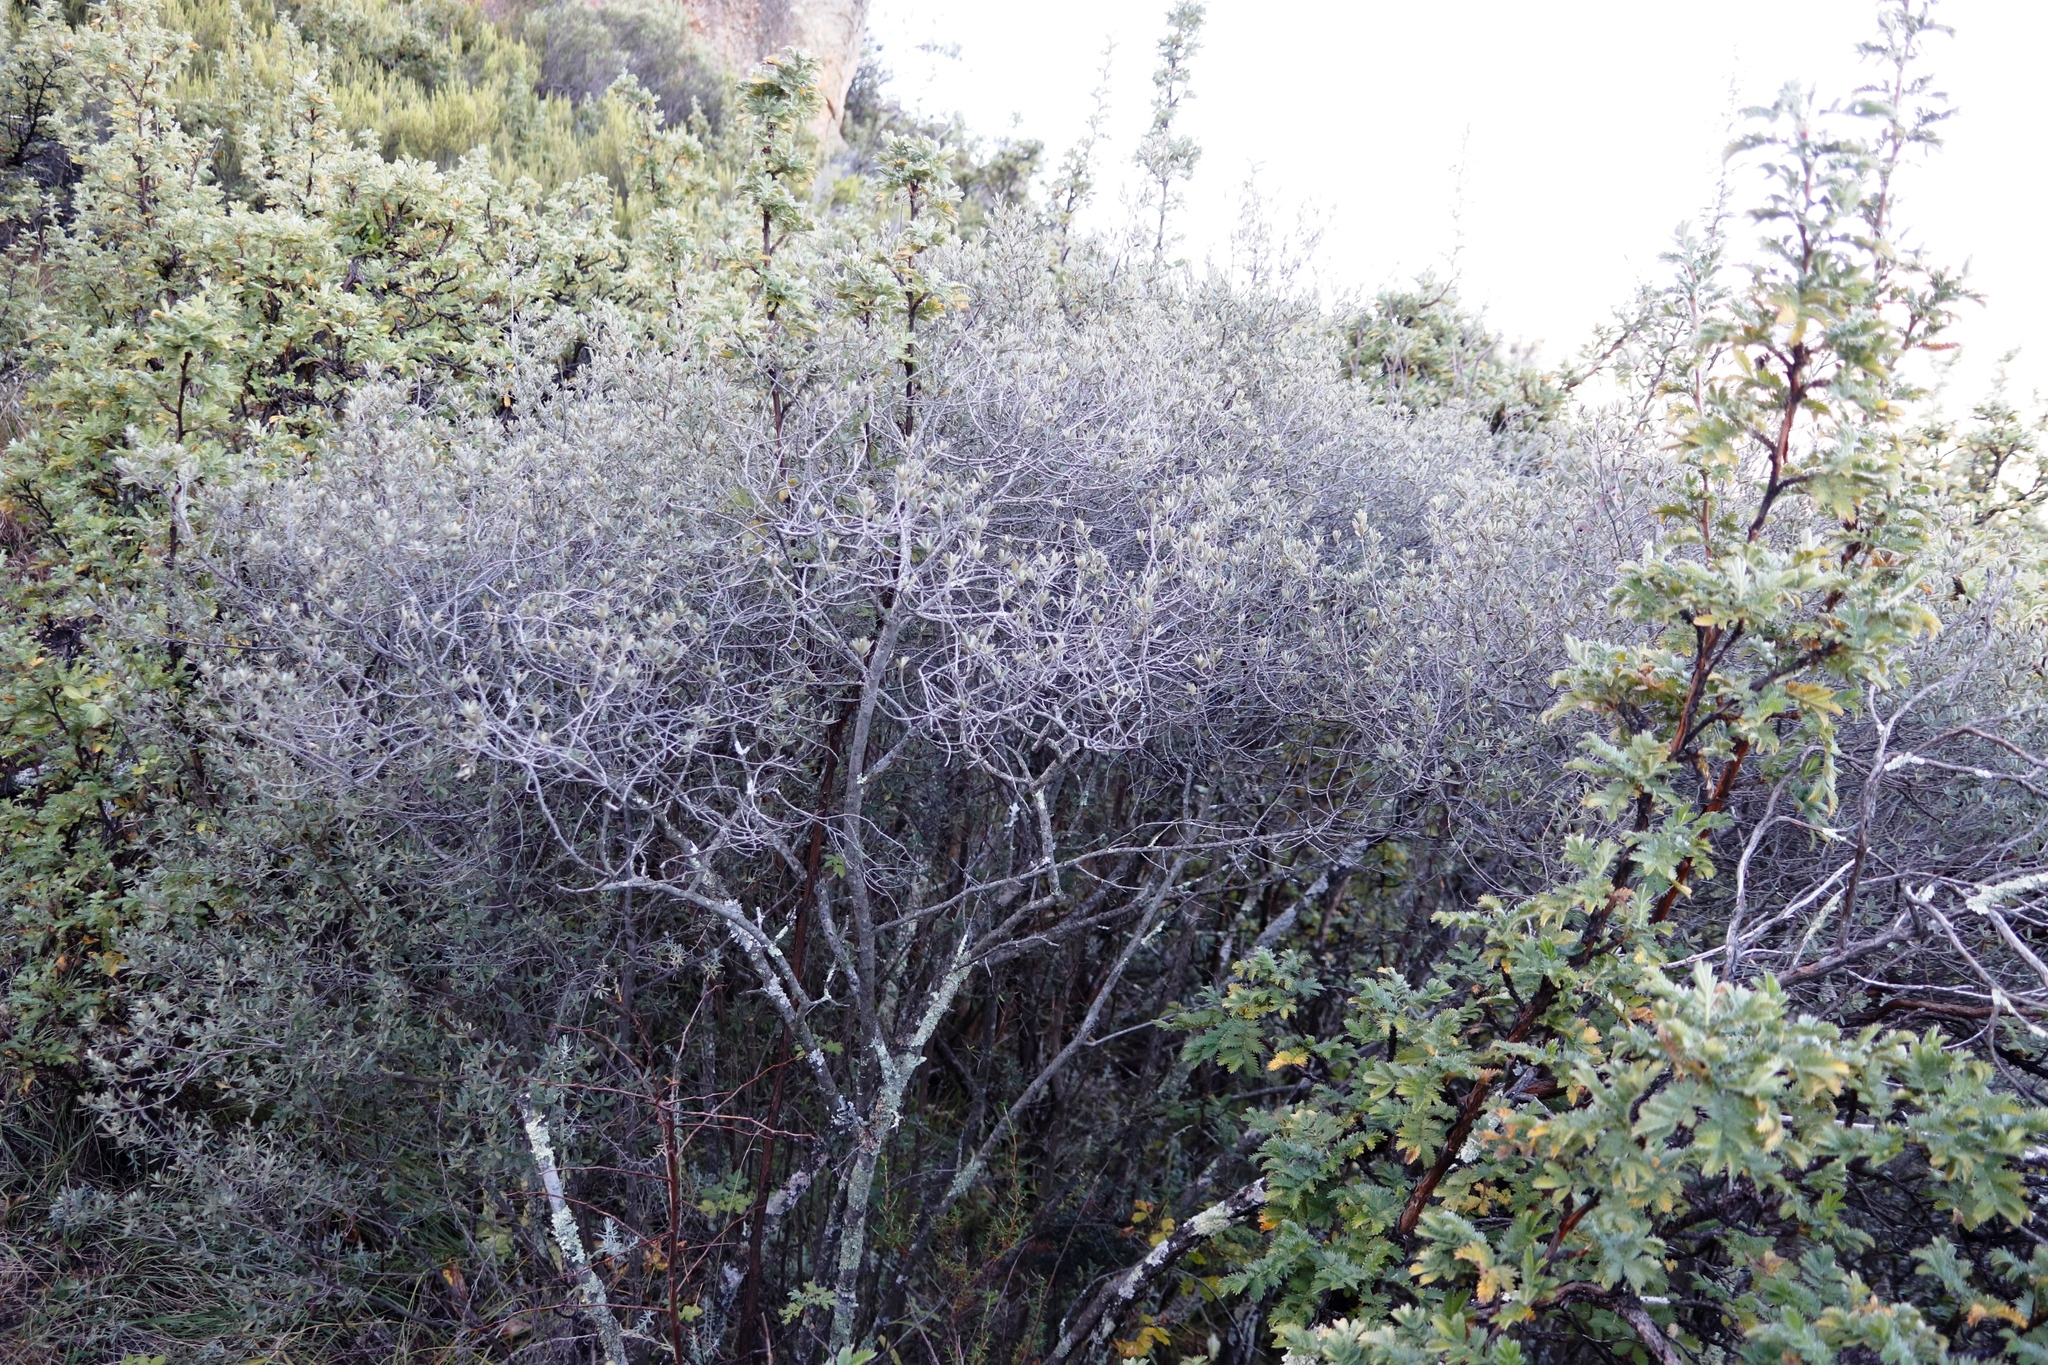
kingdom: Plantae
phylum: Tracheophyta
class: Magnoliopsida
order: Ericales
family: Ebenaceae
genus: Diospyros
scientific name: Diospyros pubescens
